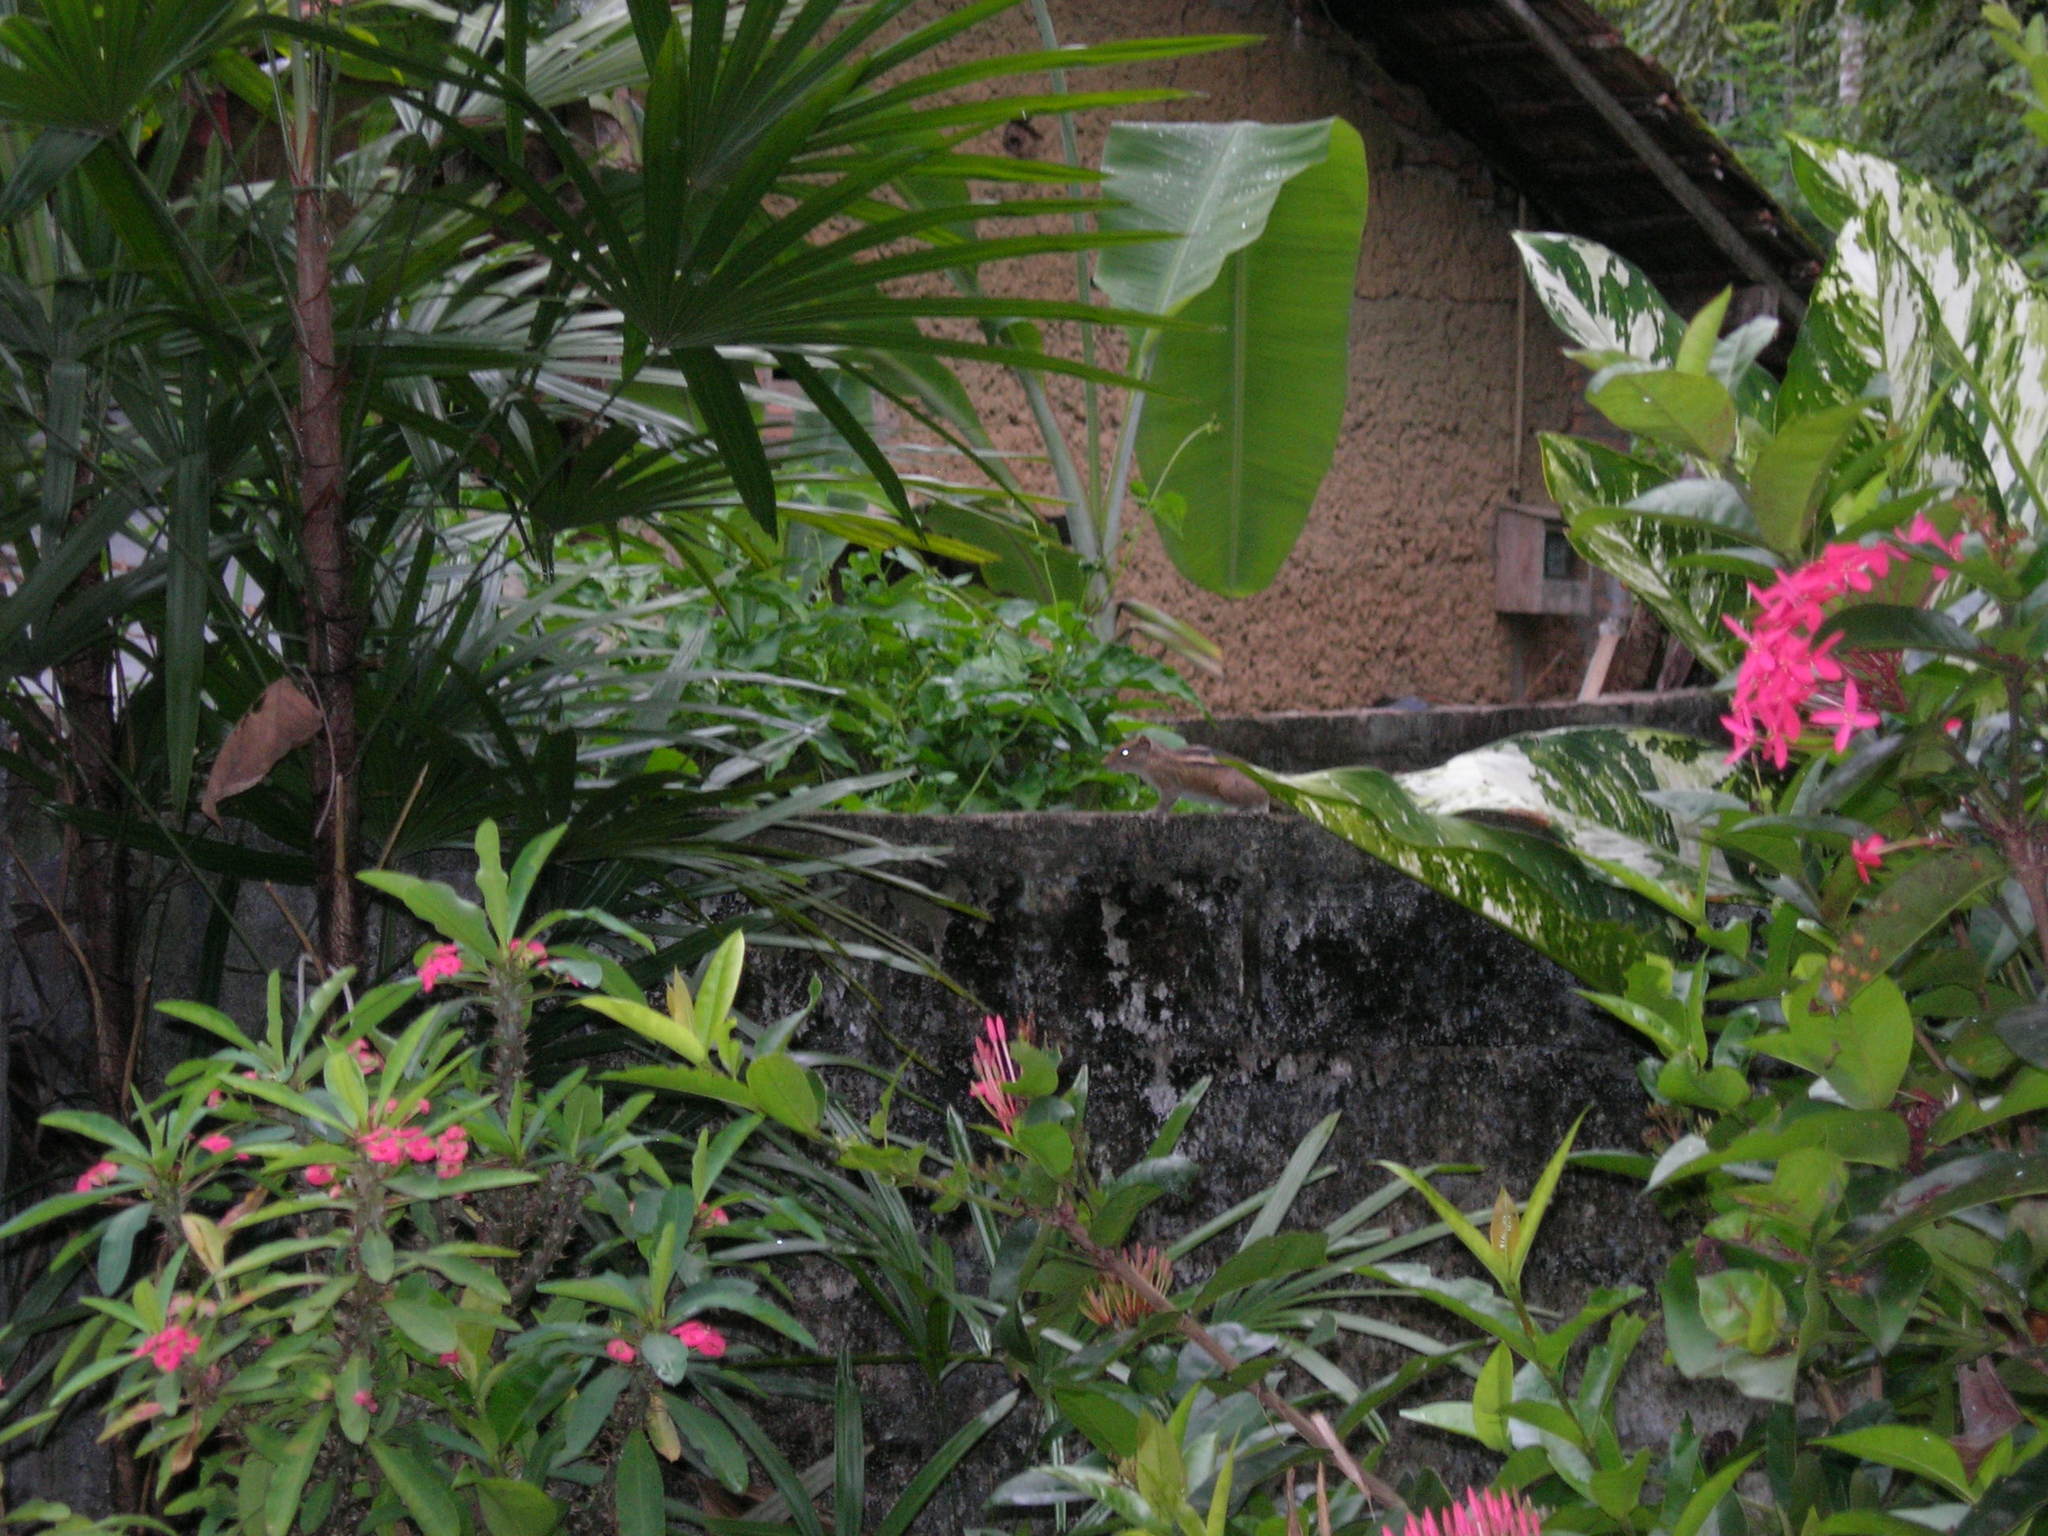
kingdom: Animalia
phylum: Chordata
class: Mammalia
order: Rodentia
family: Sciuridae
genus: Funambulus
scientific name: Funambulus palmarum
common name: Indian palm squirrel
